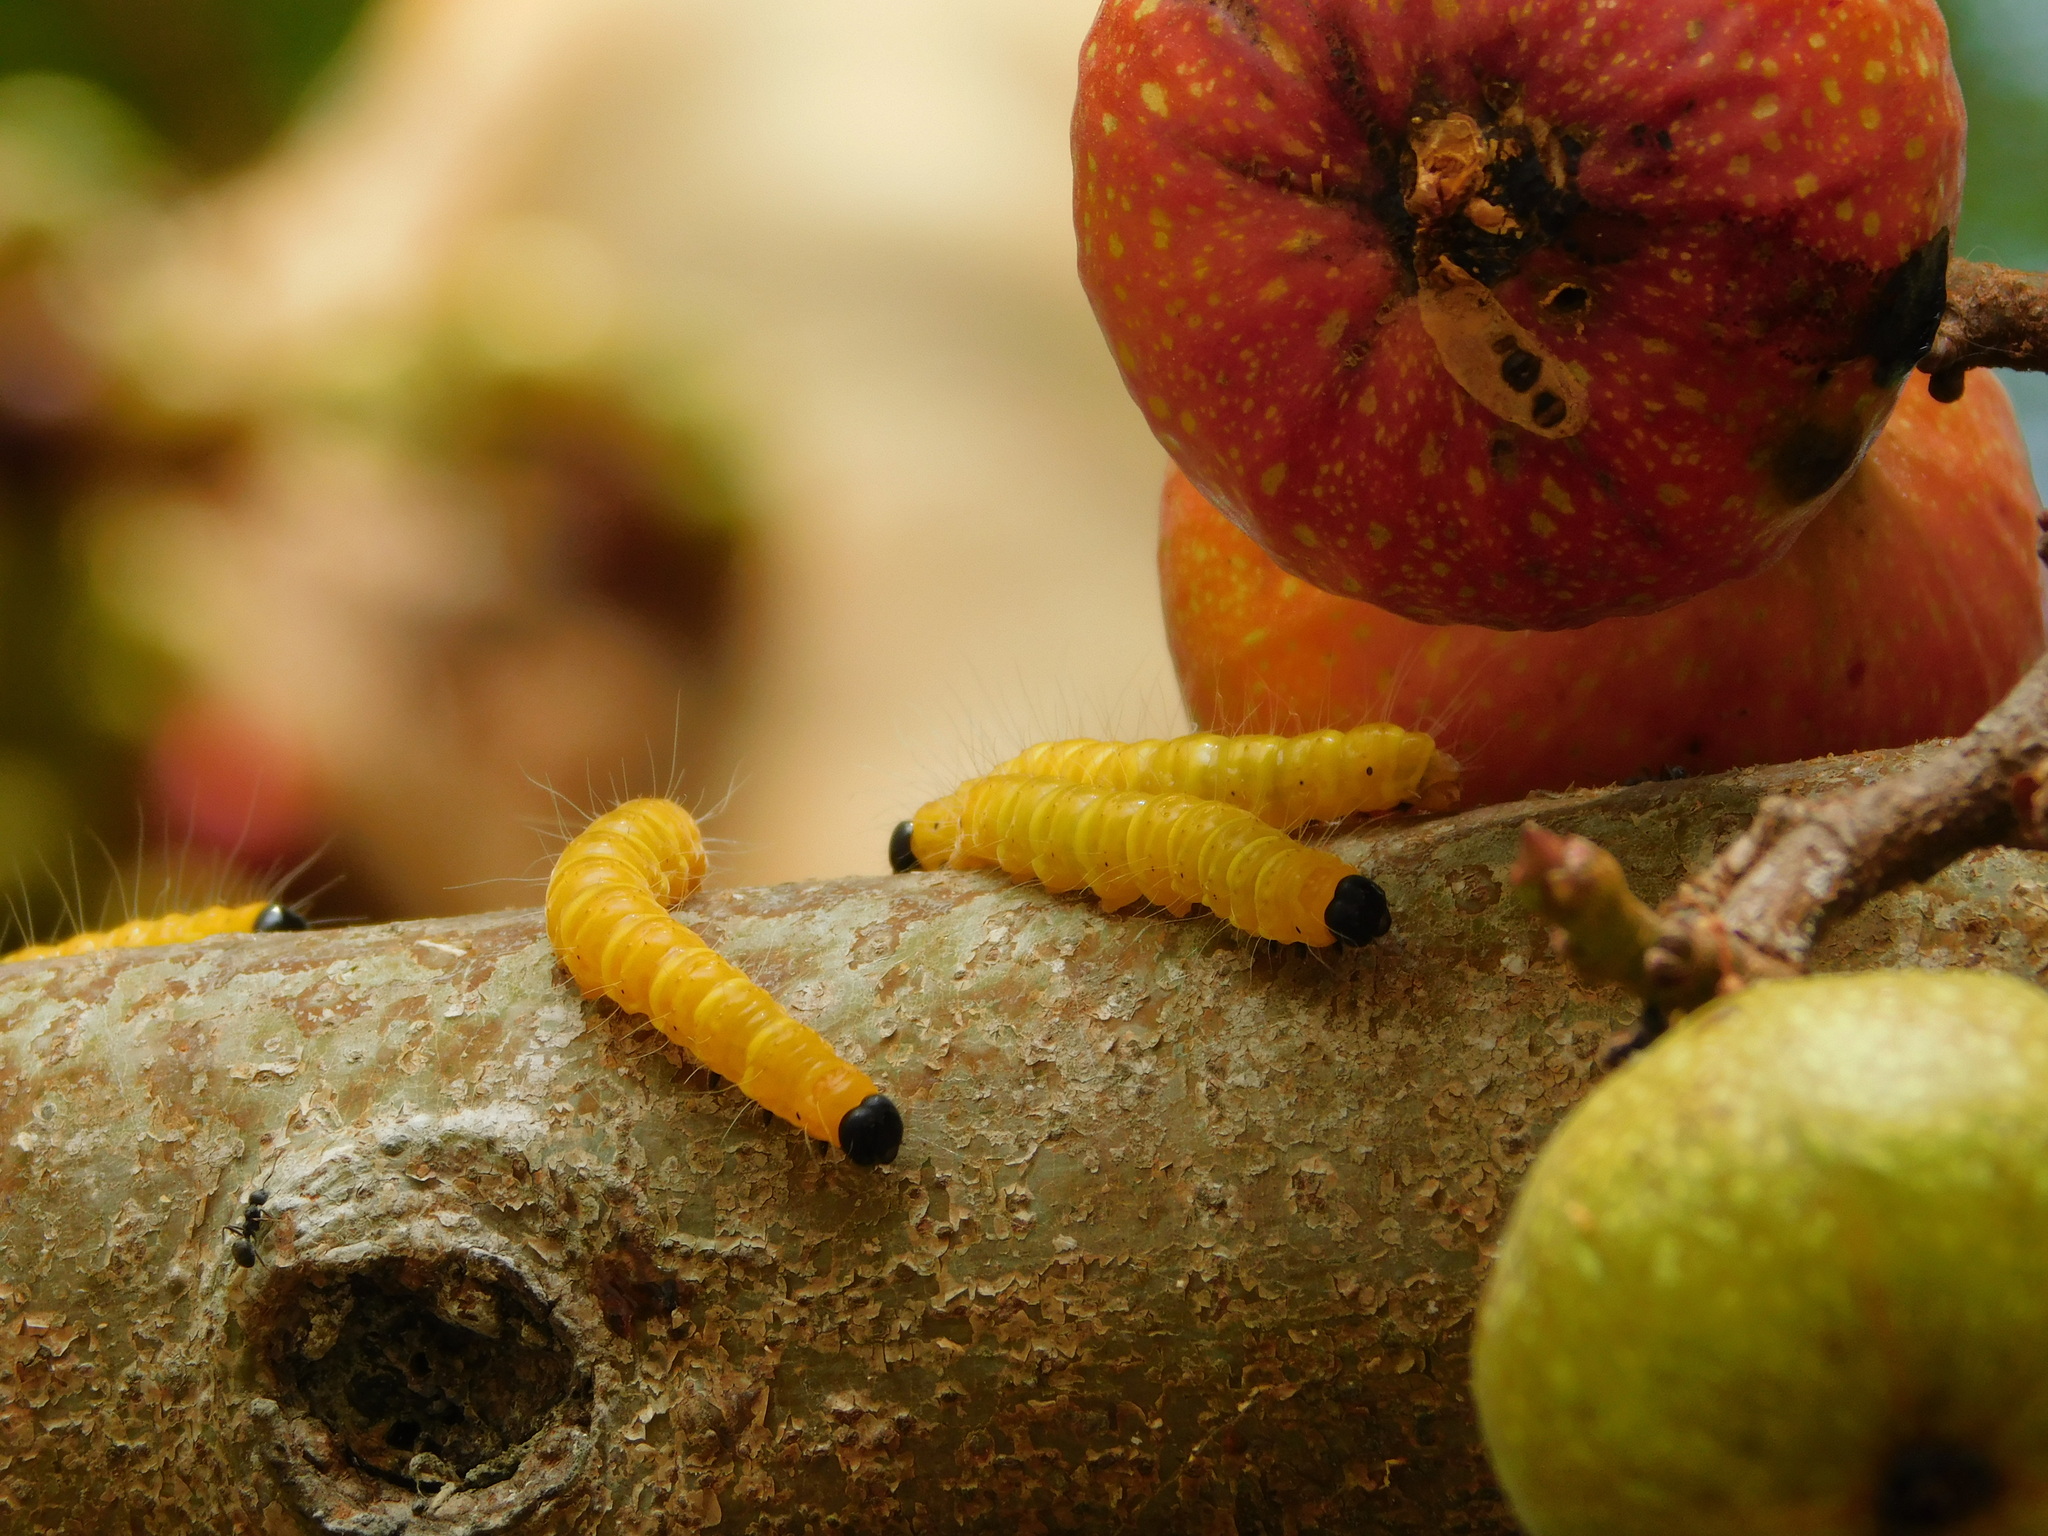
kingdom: Animalia
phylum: Arthropoda
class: Insecta
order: Lepidoptera
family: Erebidae
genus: Asota
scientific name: Asota plana
